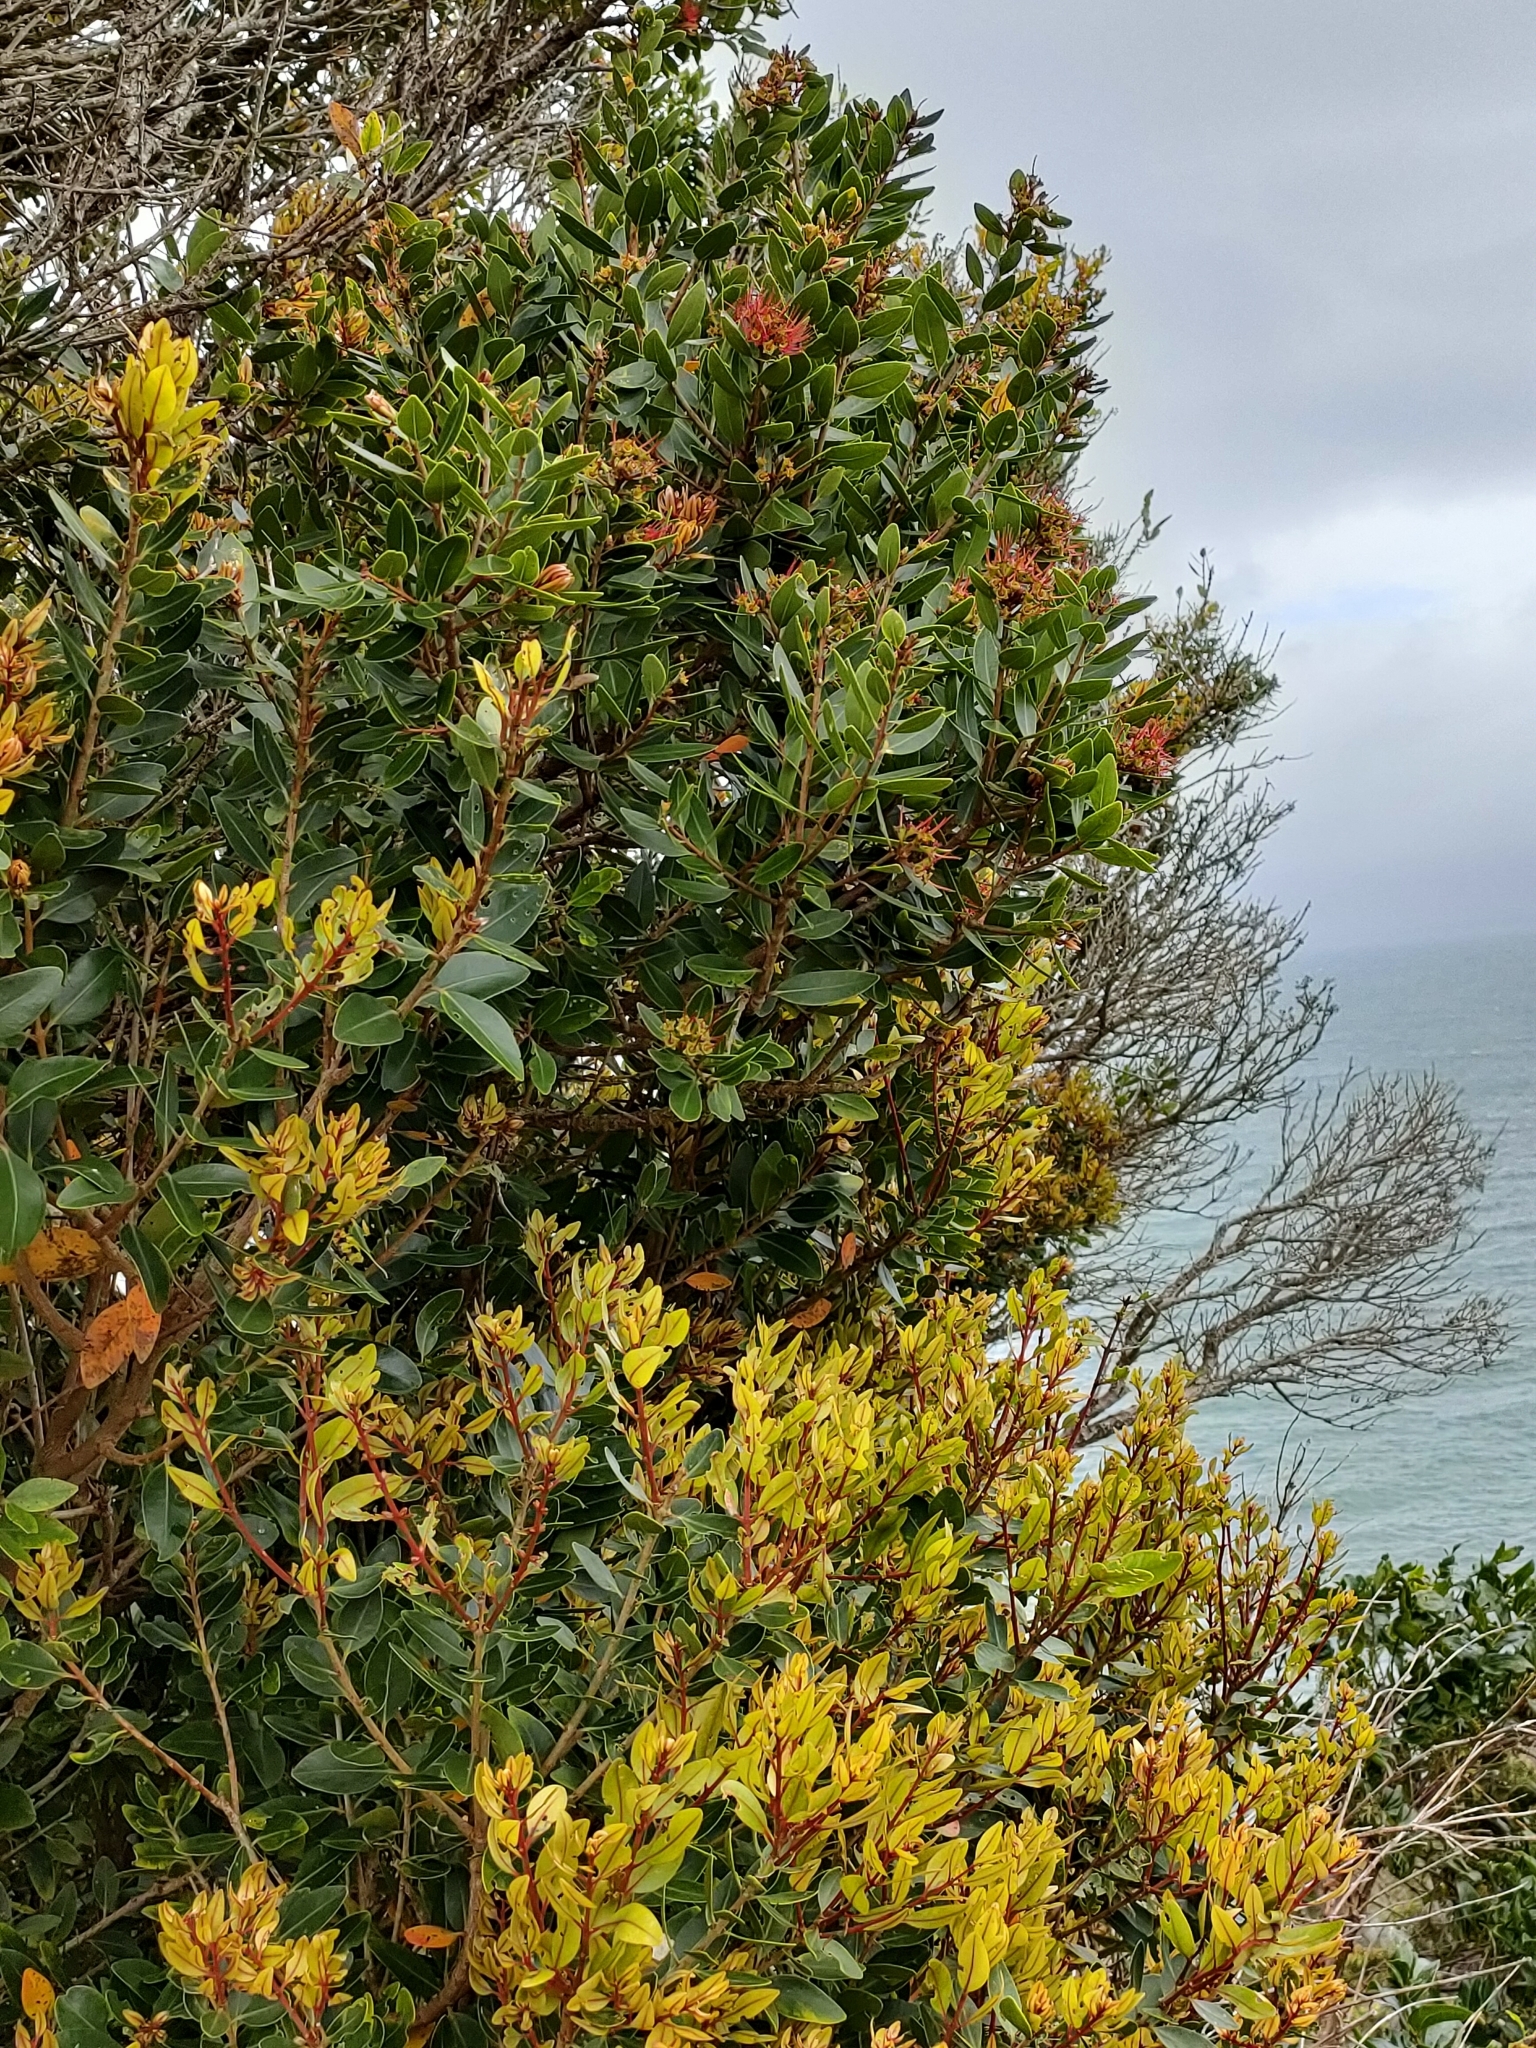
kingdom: Plantae
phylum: Tracheophyta
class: Magnoliopsida
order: Myrtales
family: Myrtaceae
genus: Metrosideros
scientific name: Metrosideros robusta
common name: Northern rata
